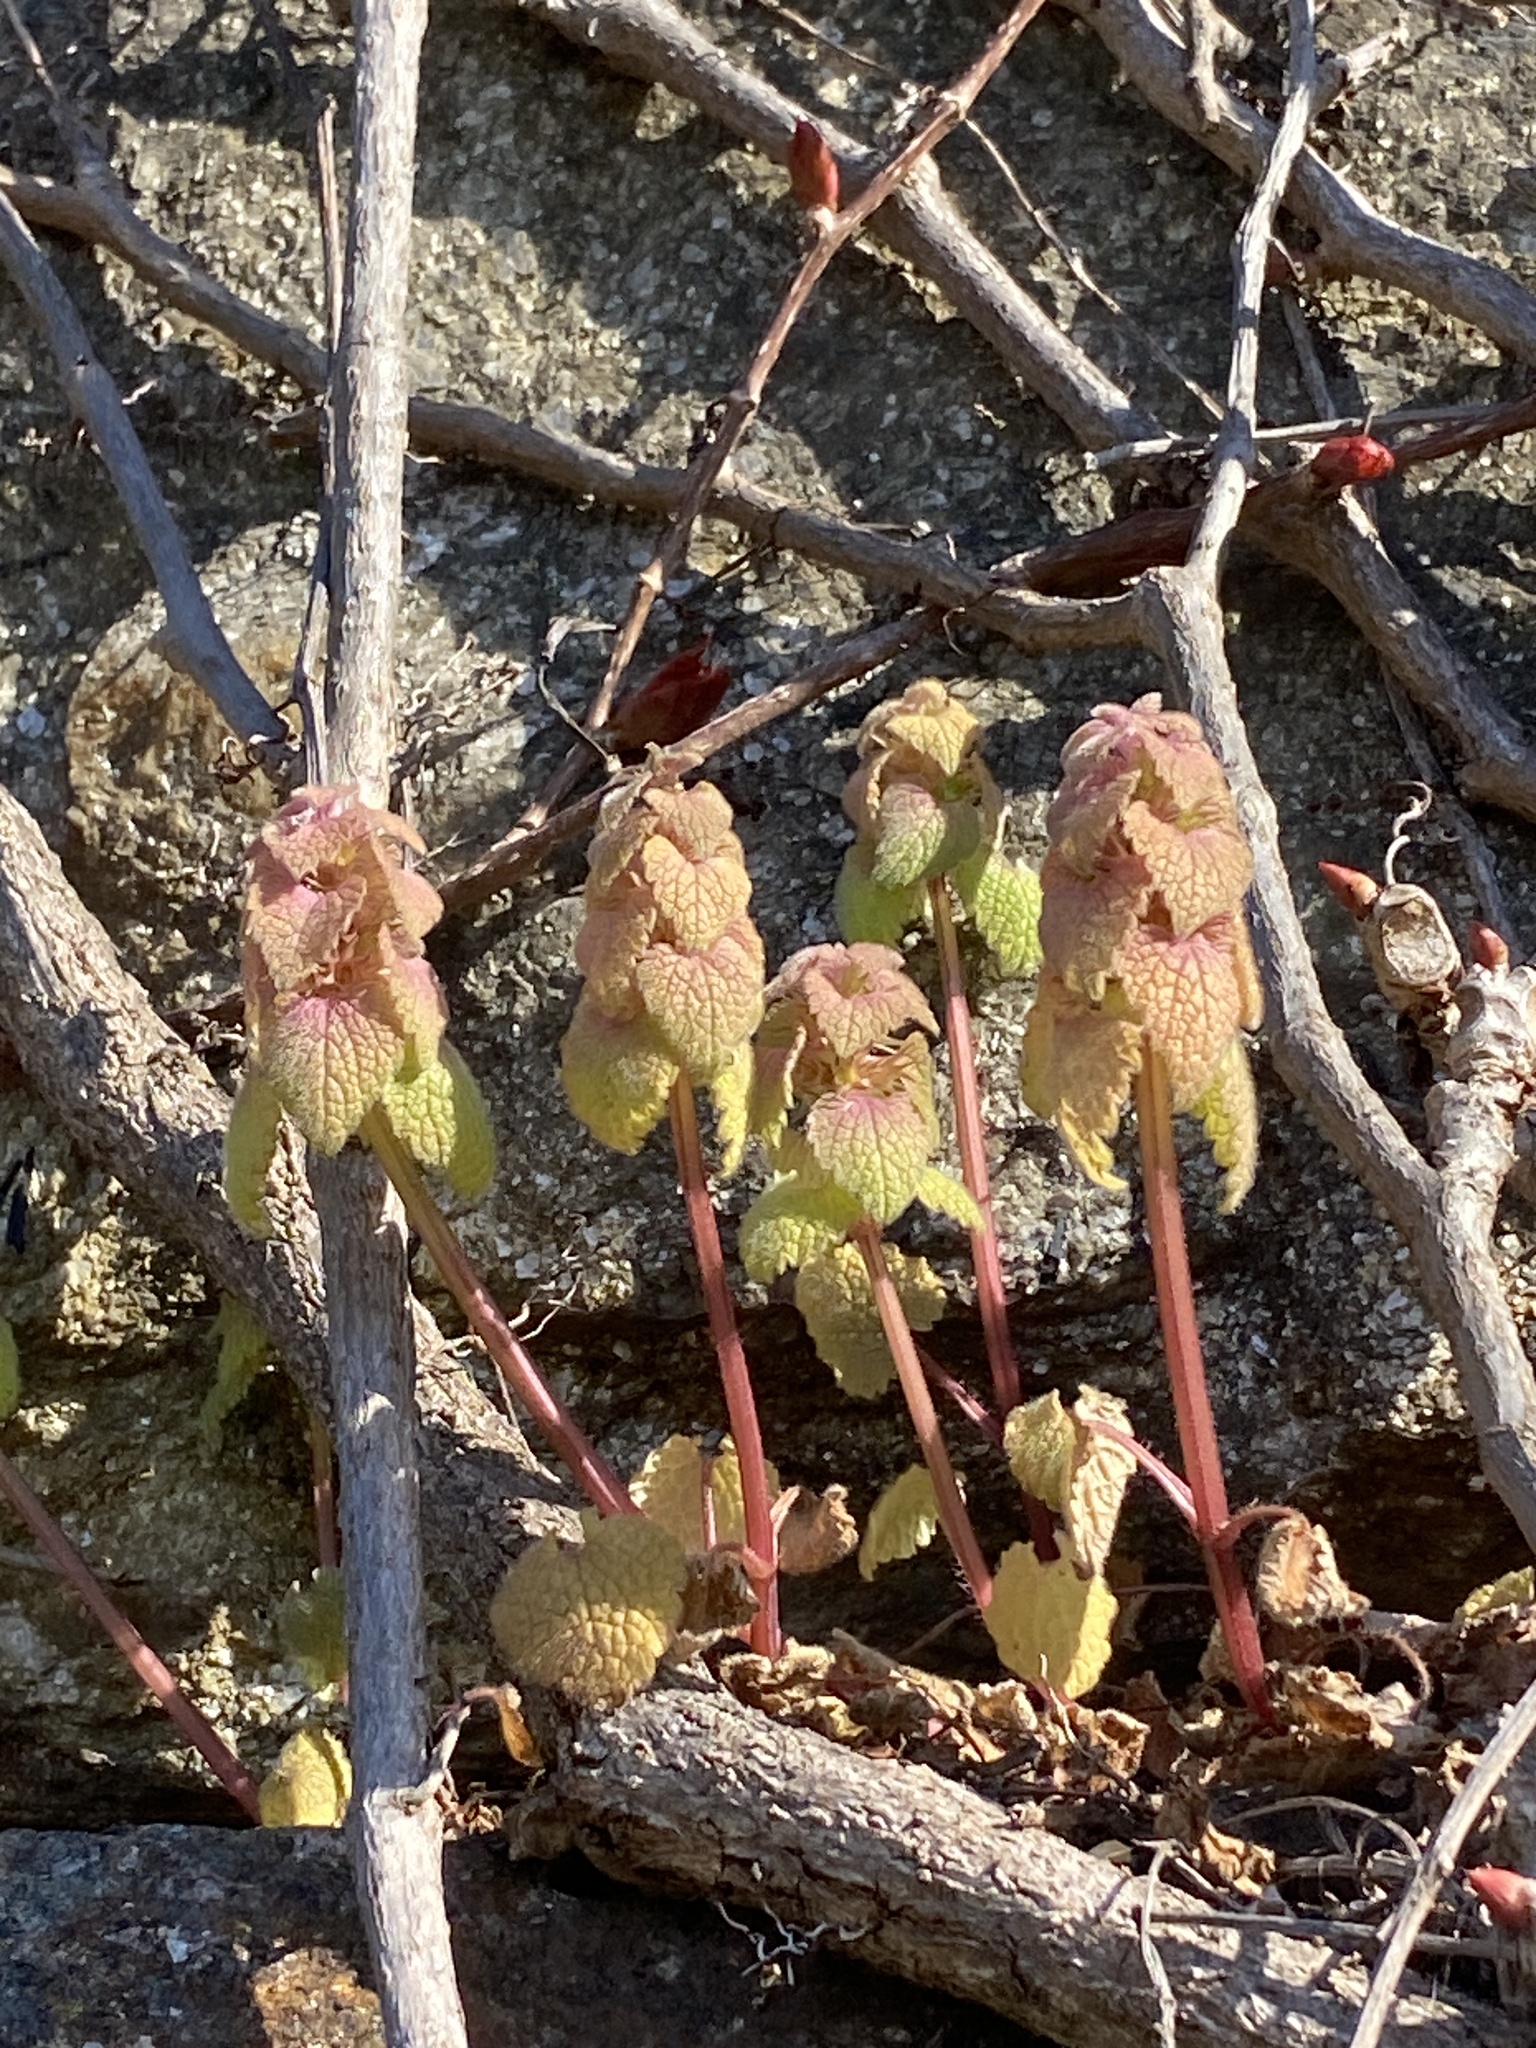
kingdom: Plantae
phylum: Tracheophyta
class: Magnoliopsida
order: Lamiales
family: Lamiaceae
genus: Lamium
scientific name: Lamium purpureum
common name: Red dead-nettle
